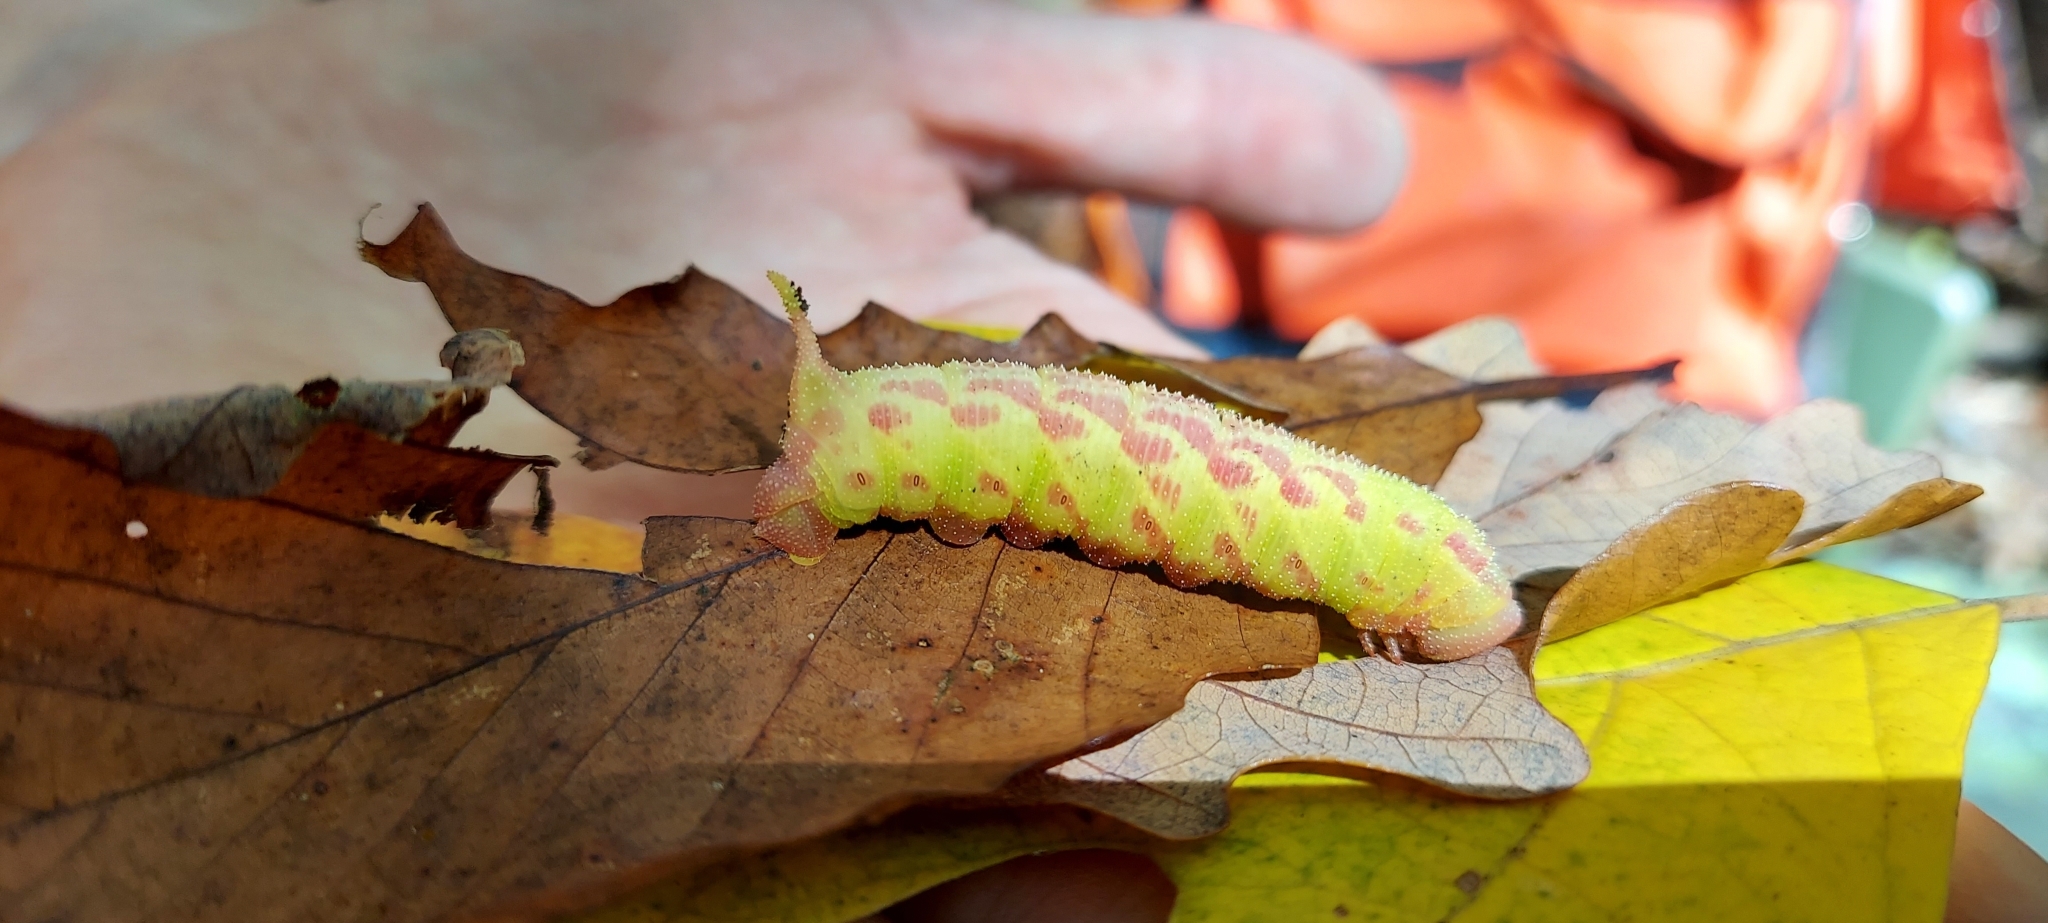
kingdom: Animalia
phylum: Arthropoda
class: Insecta
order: Lepidoptera
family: Sphingidae
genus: Paonias
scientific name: Paonias astylus
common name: Huckleberry sphinx
